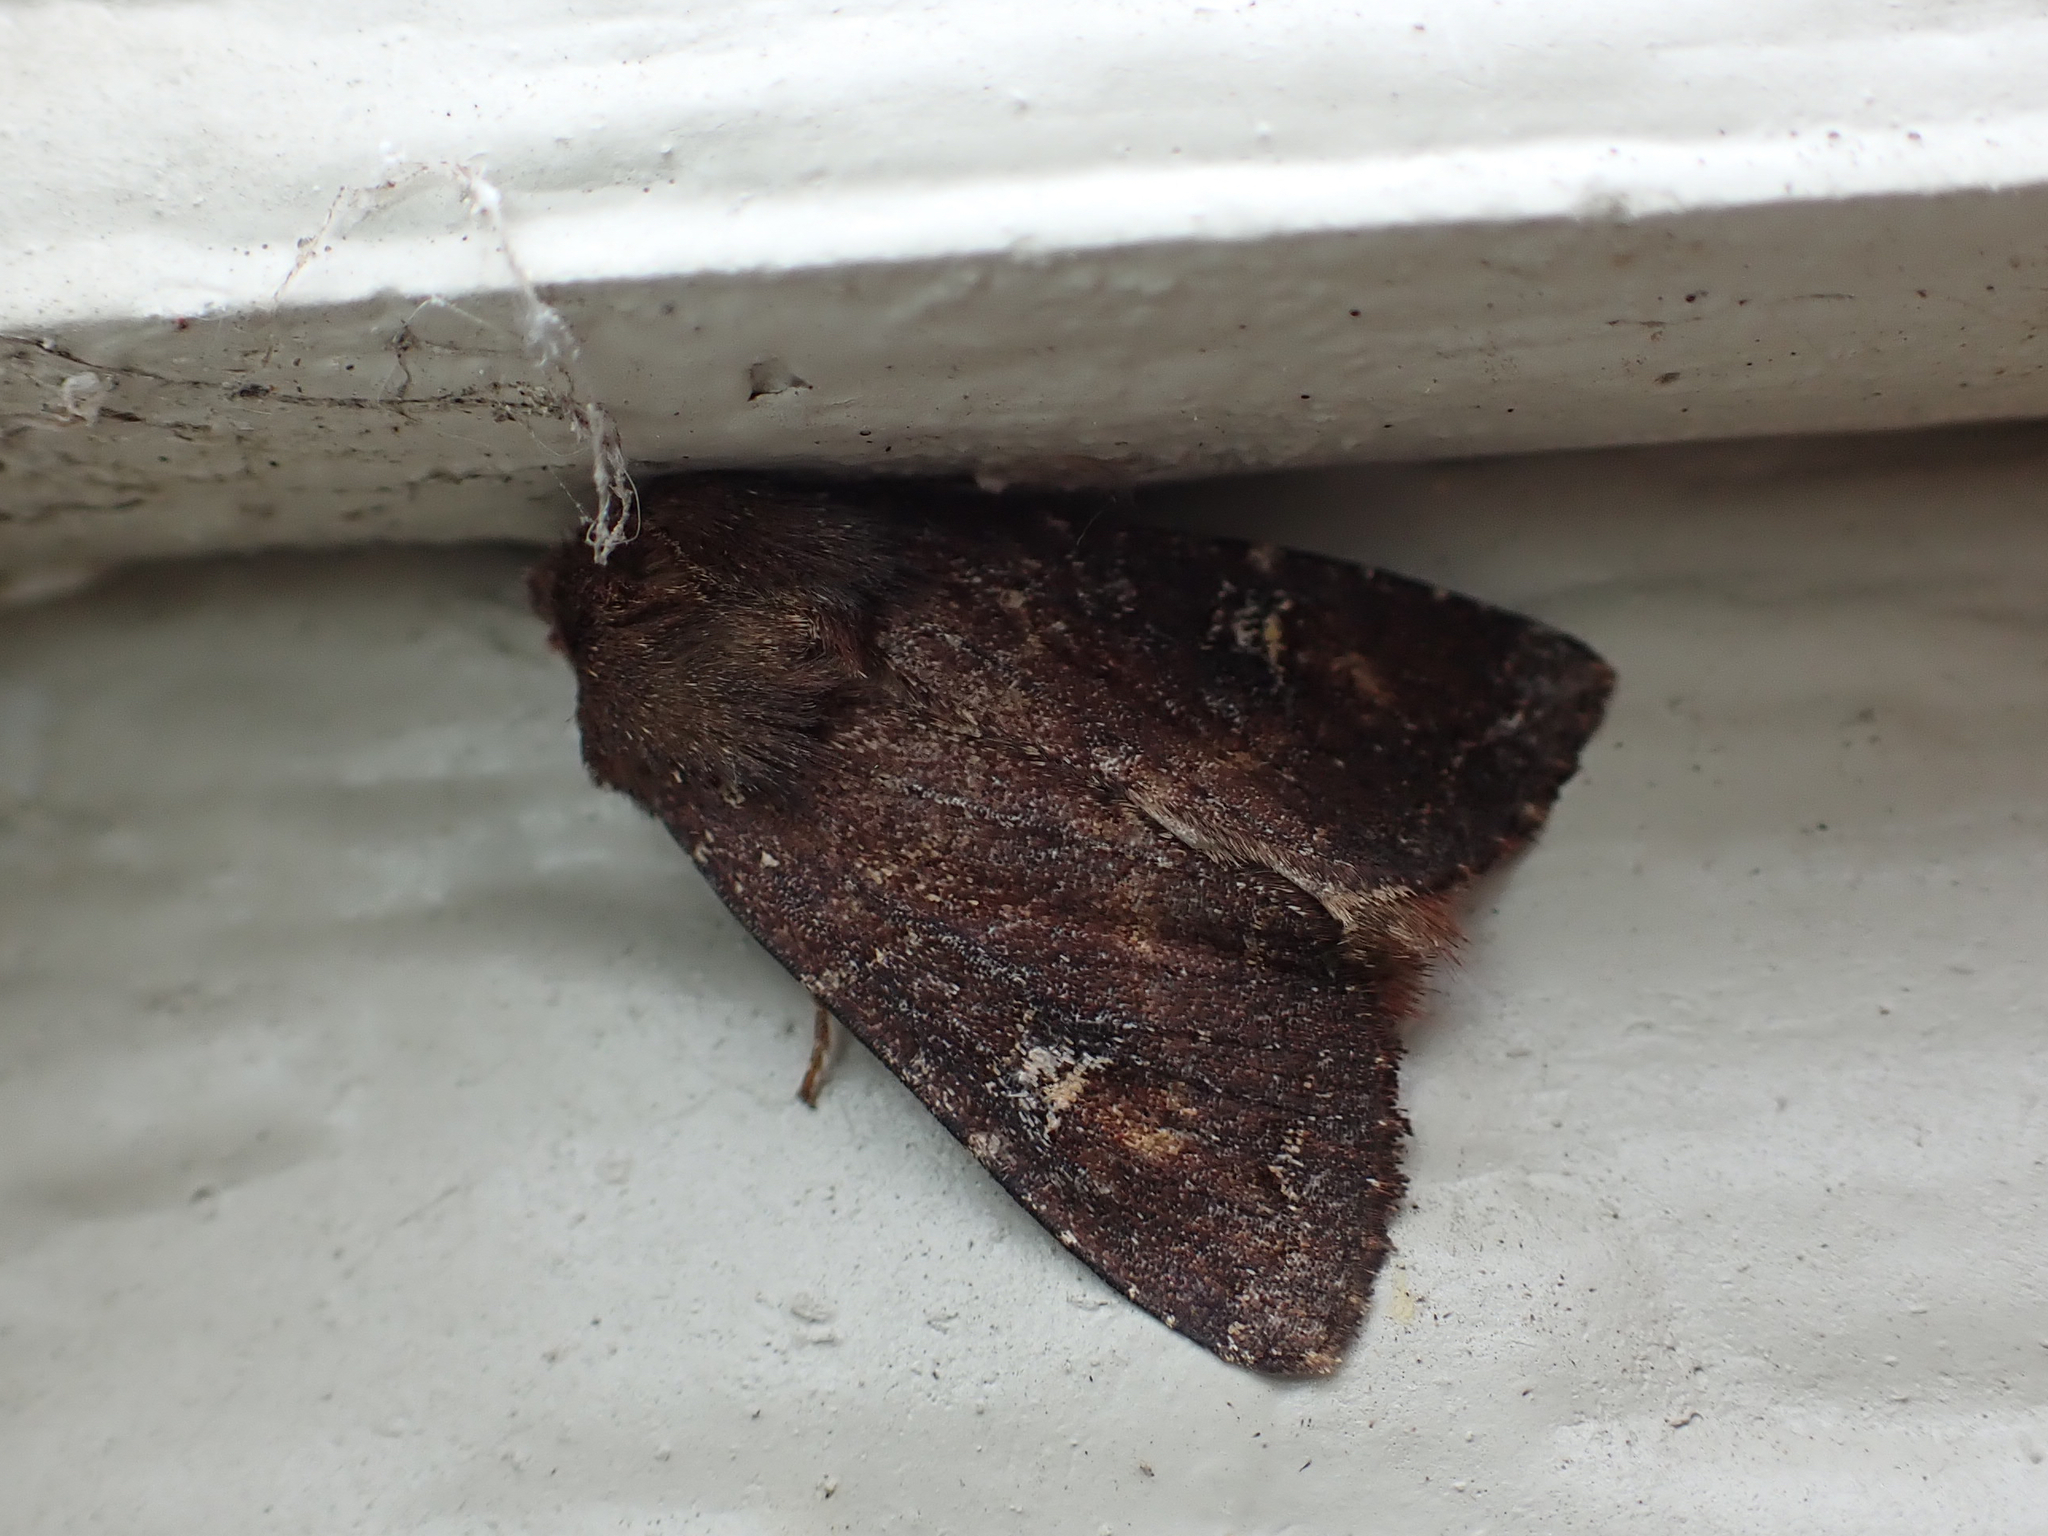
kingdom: Animalia
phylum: Arthropoda
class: Insecta
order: Lepidoptera
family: Noctuidae
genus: Apamea
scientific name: Apamea cogitata
